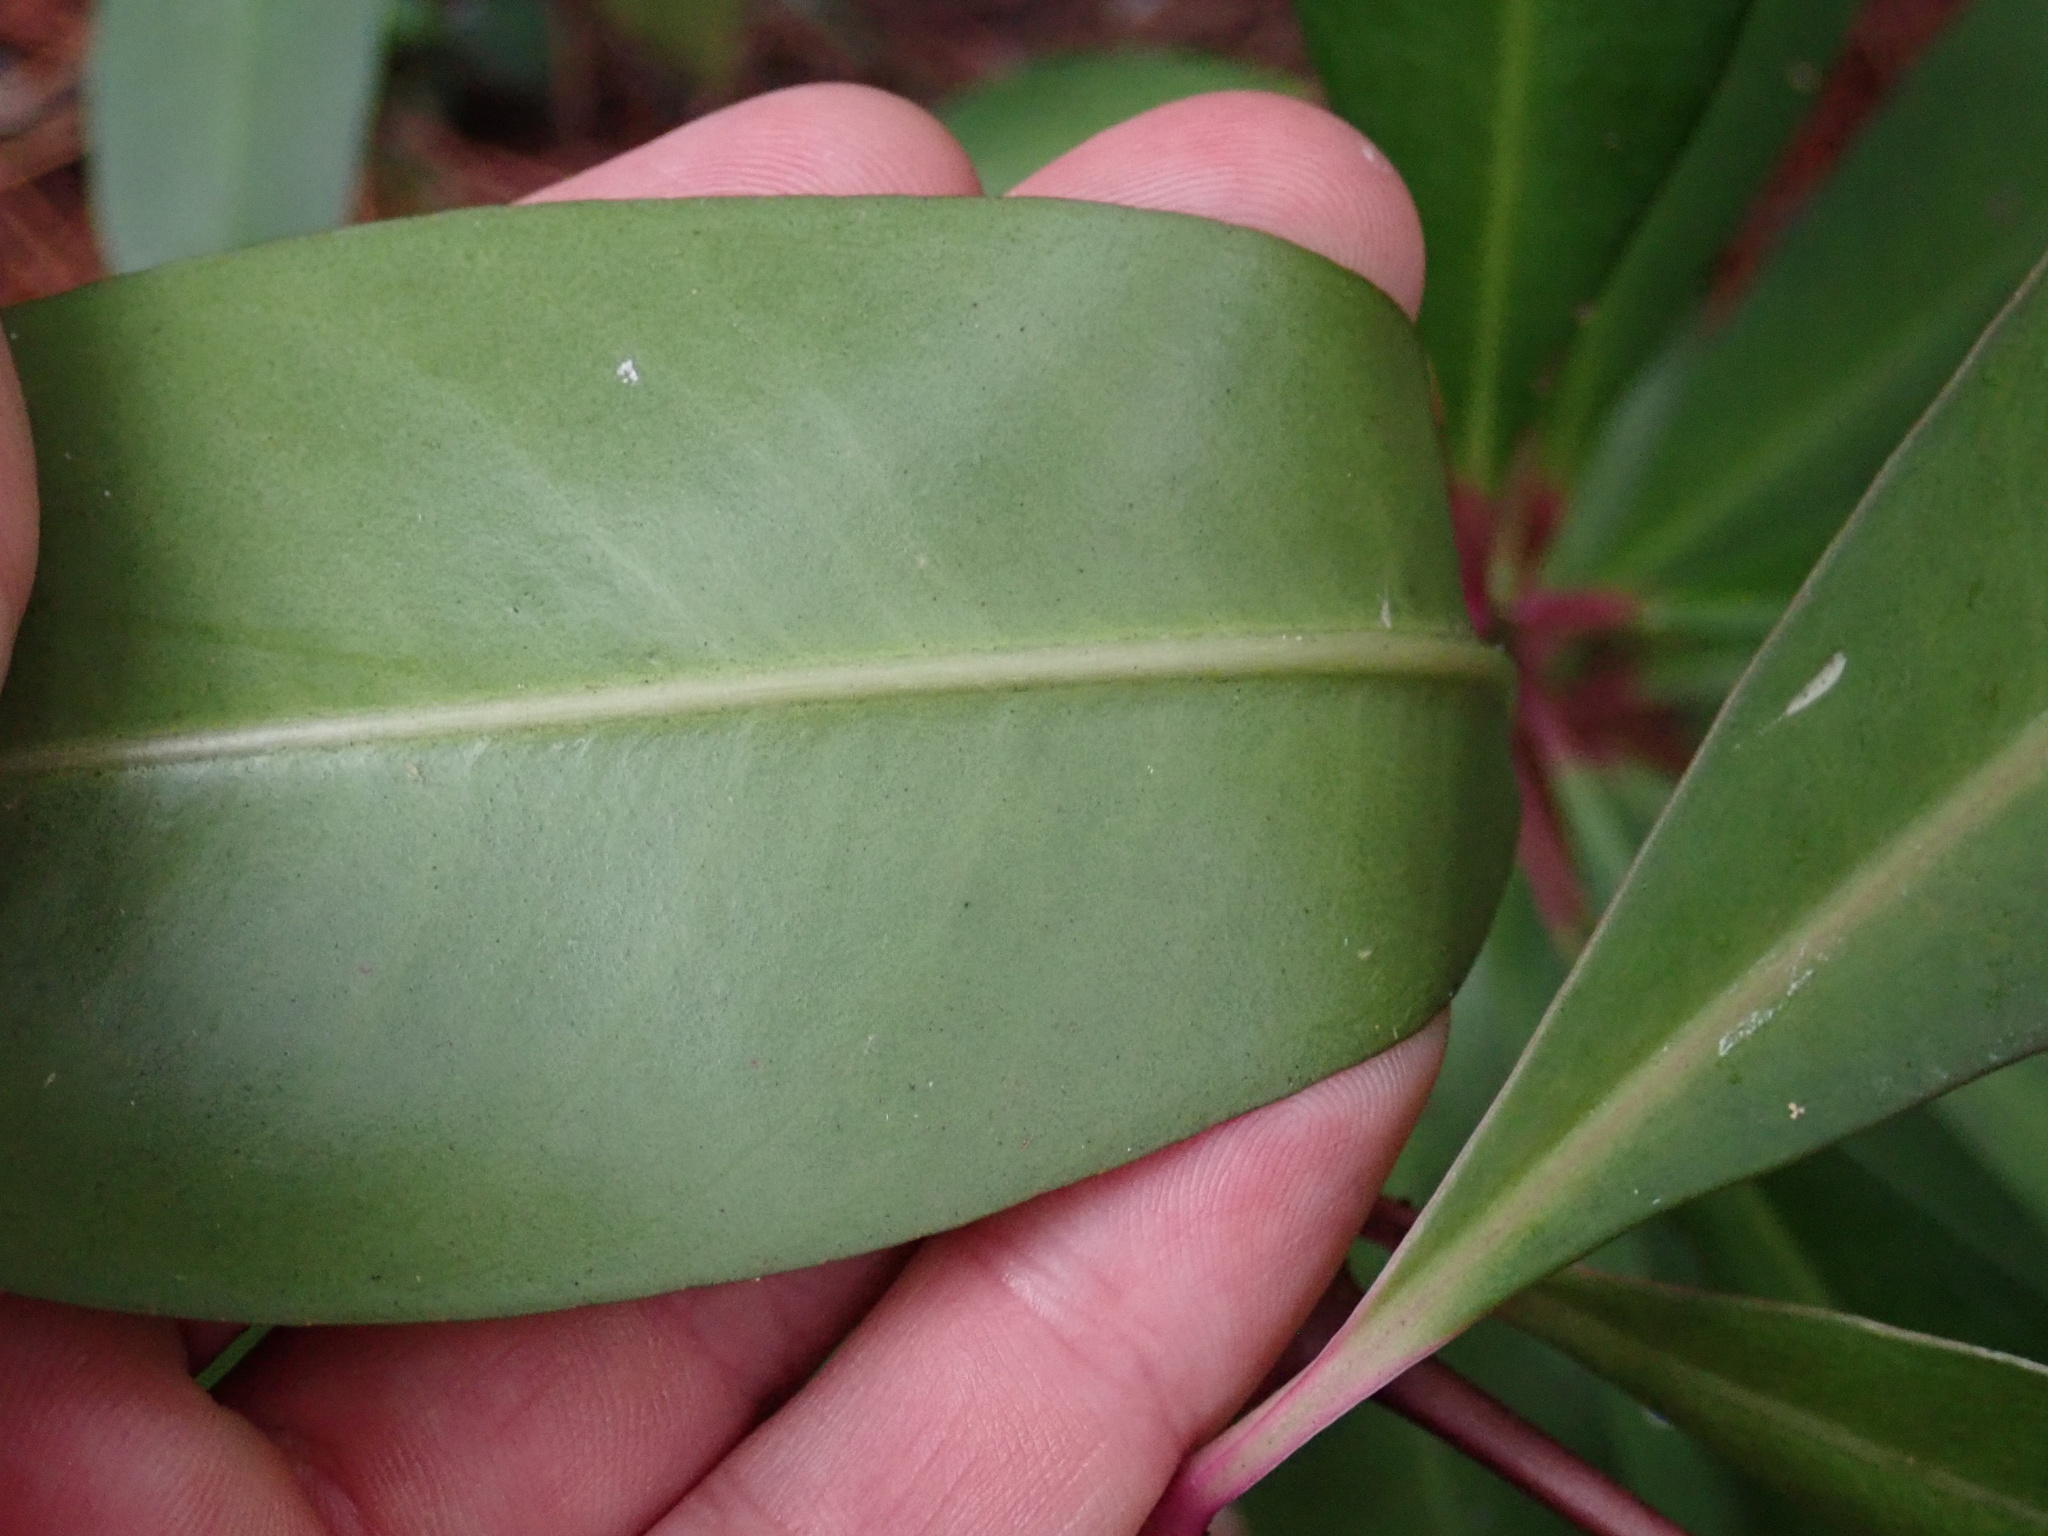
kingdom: Plantae
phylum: Tracheophyta
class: Magnoliopsida
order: Ericales
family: Primulaceae
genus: Ardisia
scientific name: Ardisia elliptica
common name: Shoebutton
